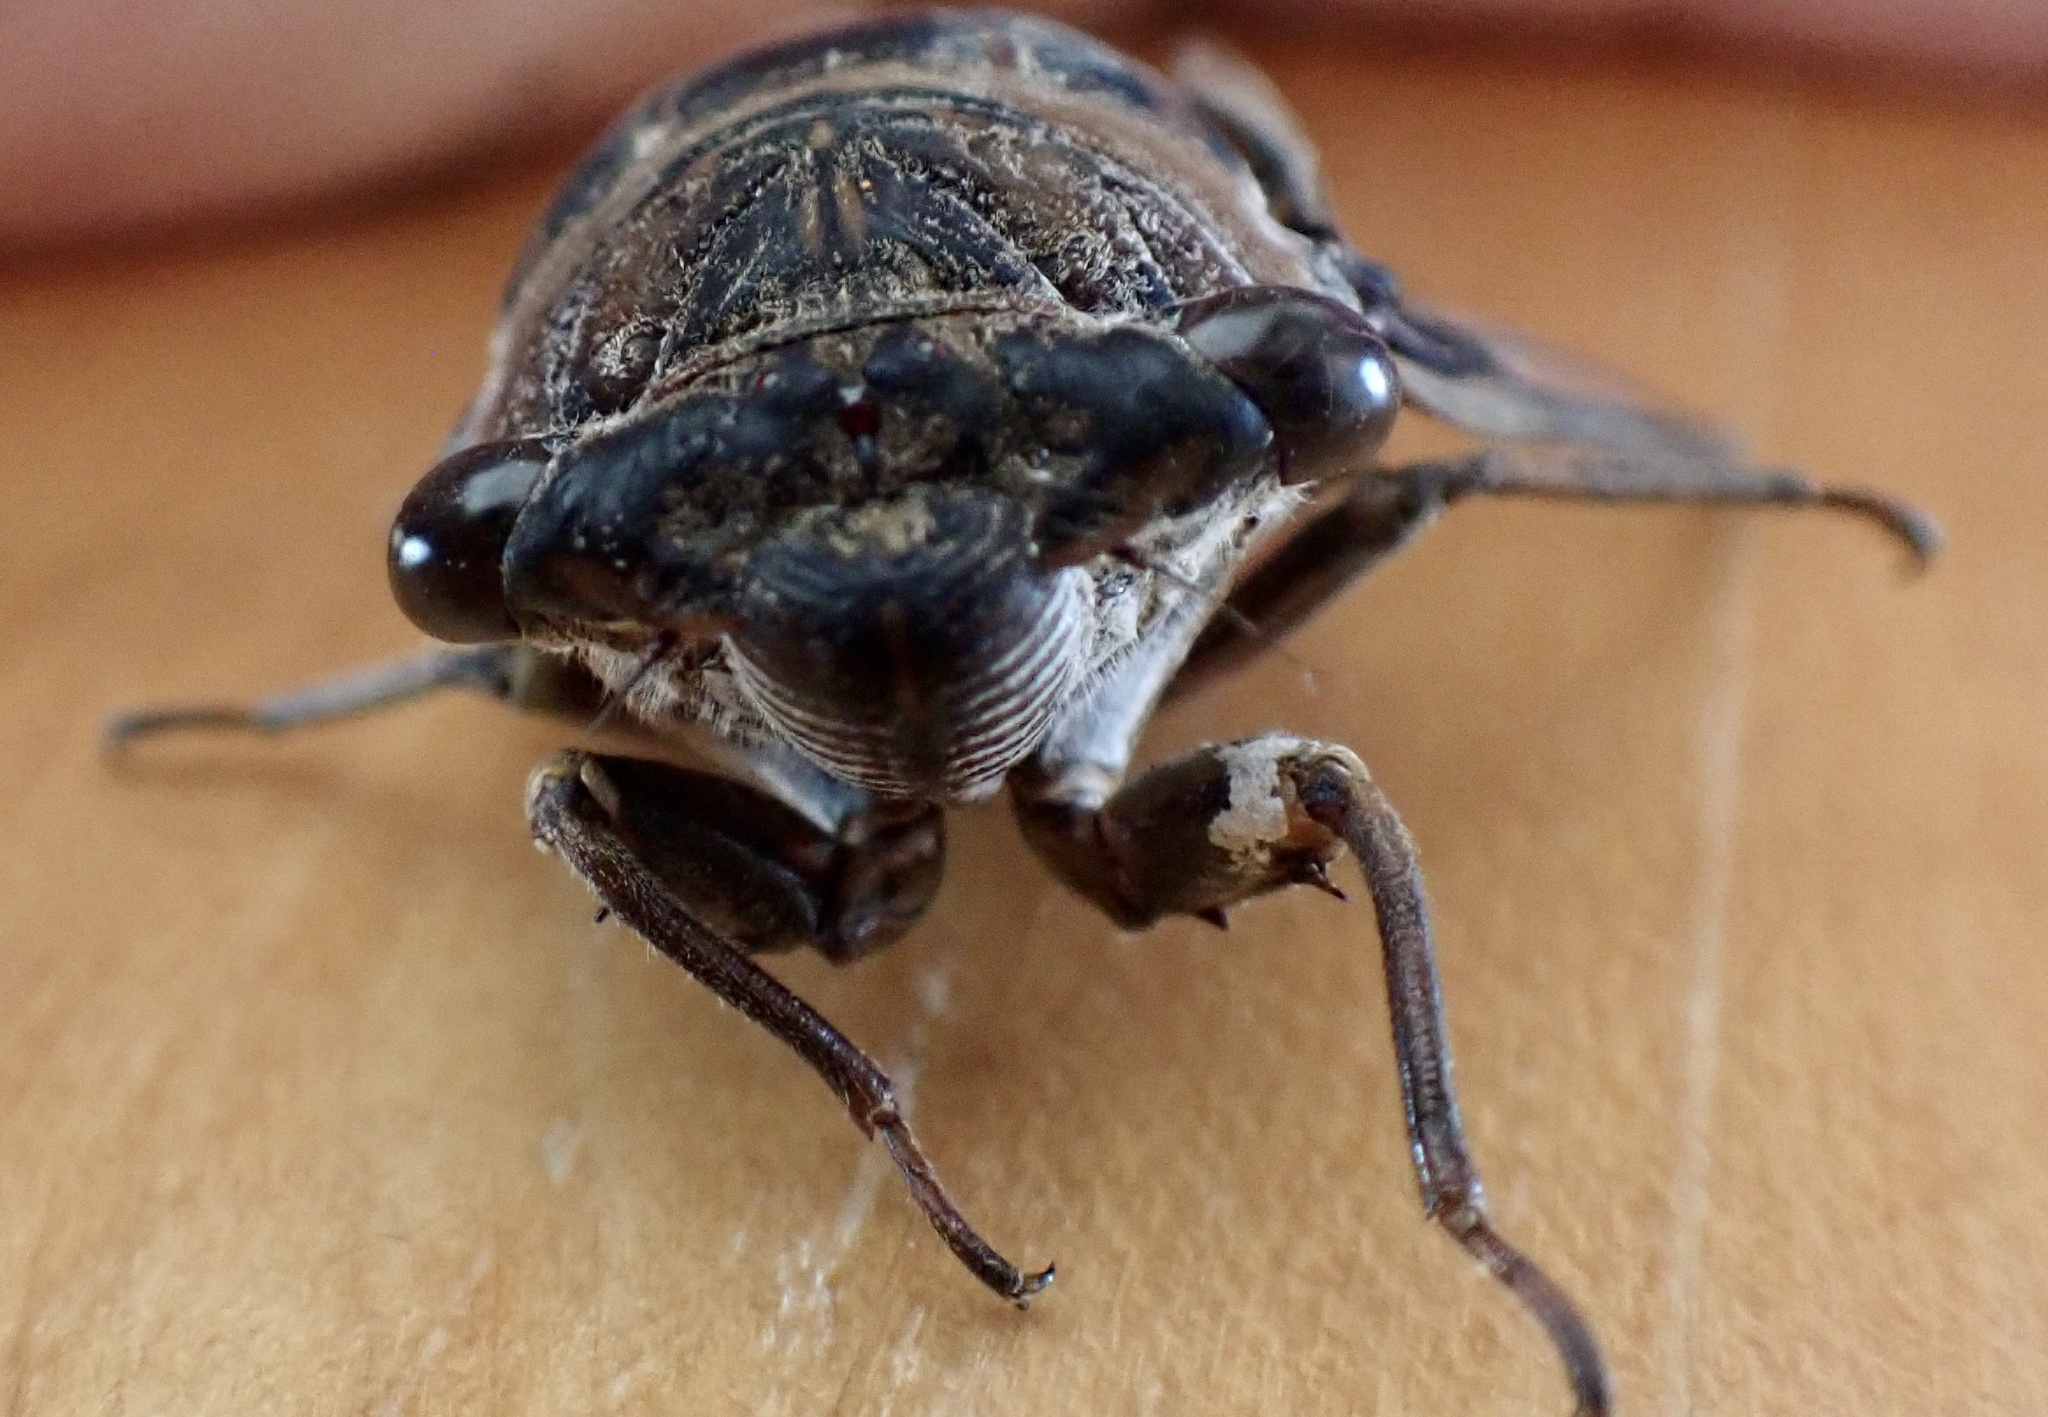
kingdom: Animalia
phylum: Arthropoda
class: Insecta
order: Hemiptera
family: Cicadidae
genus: Megatibicen
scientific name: Megatibicen figuratus
